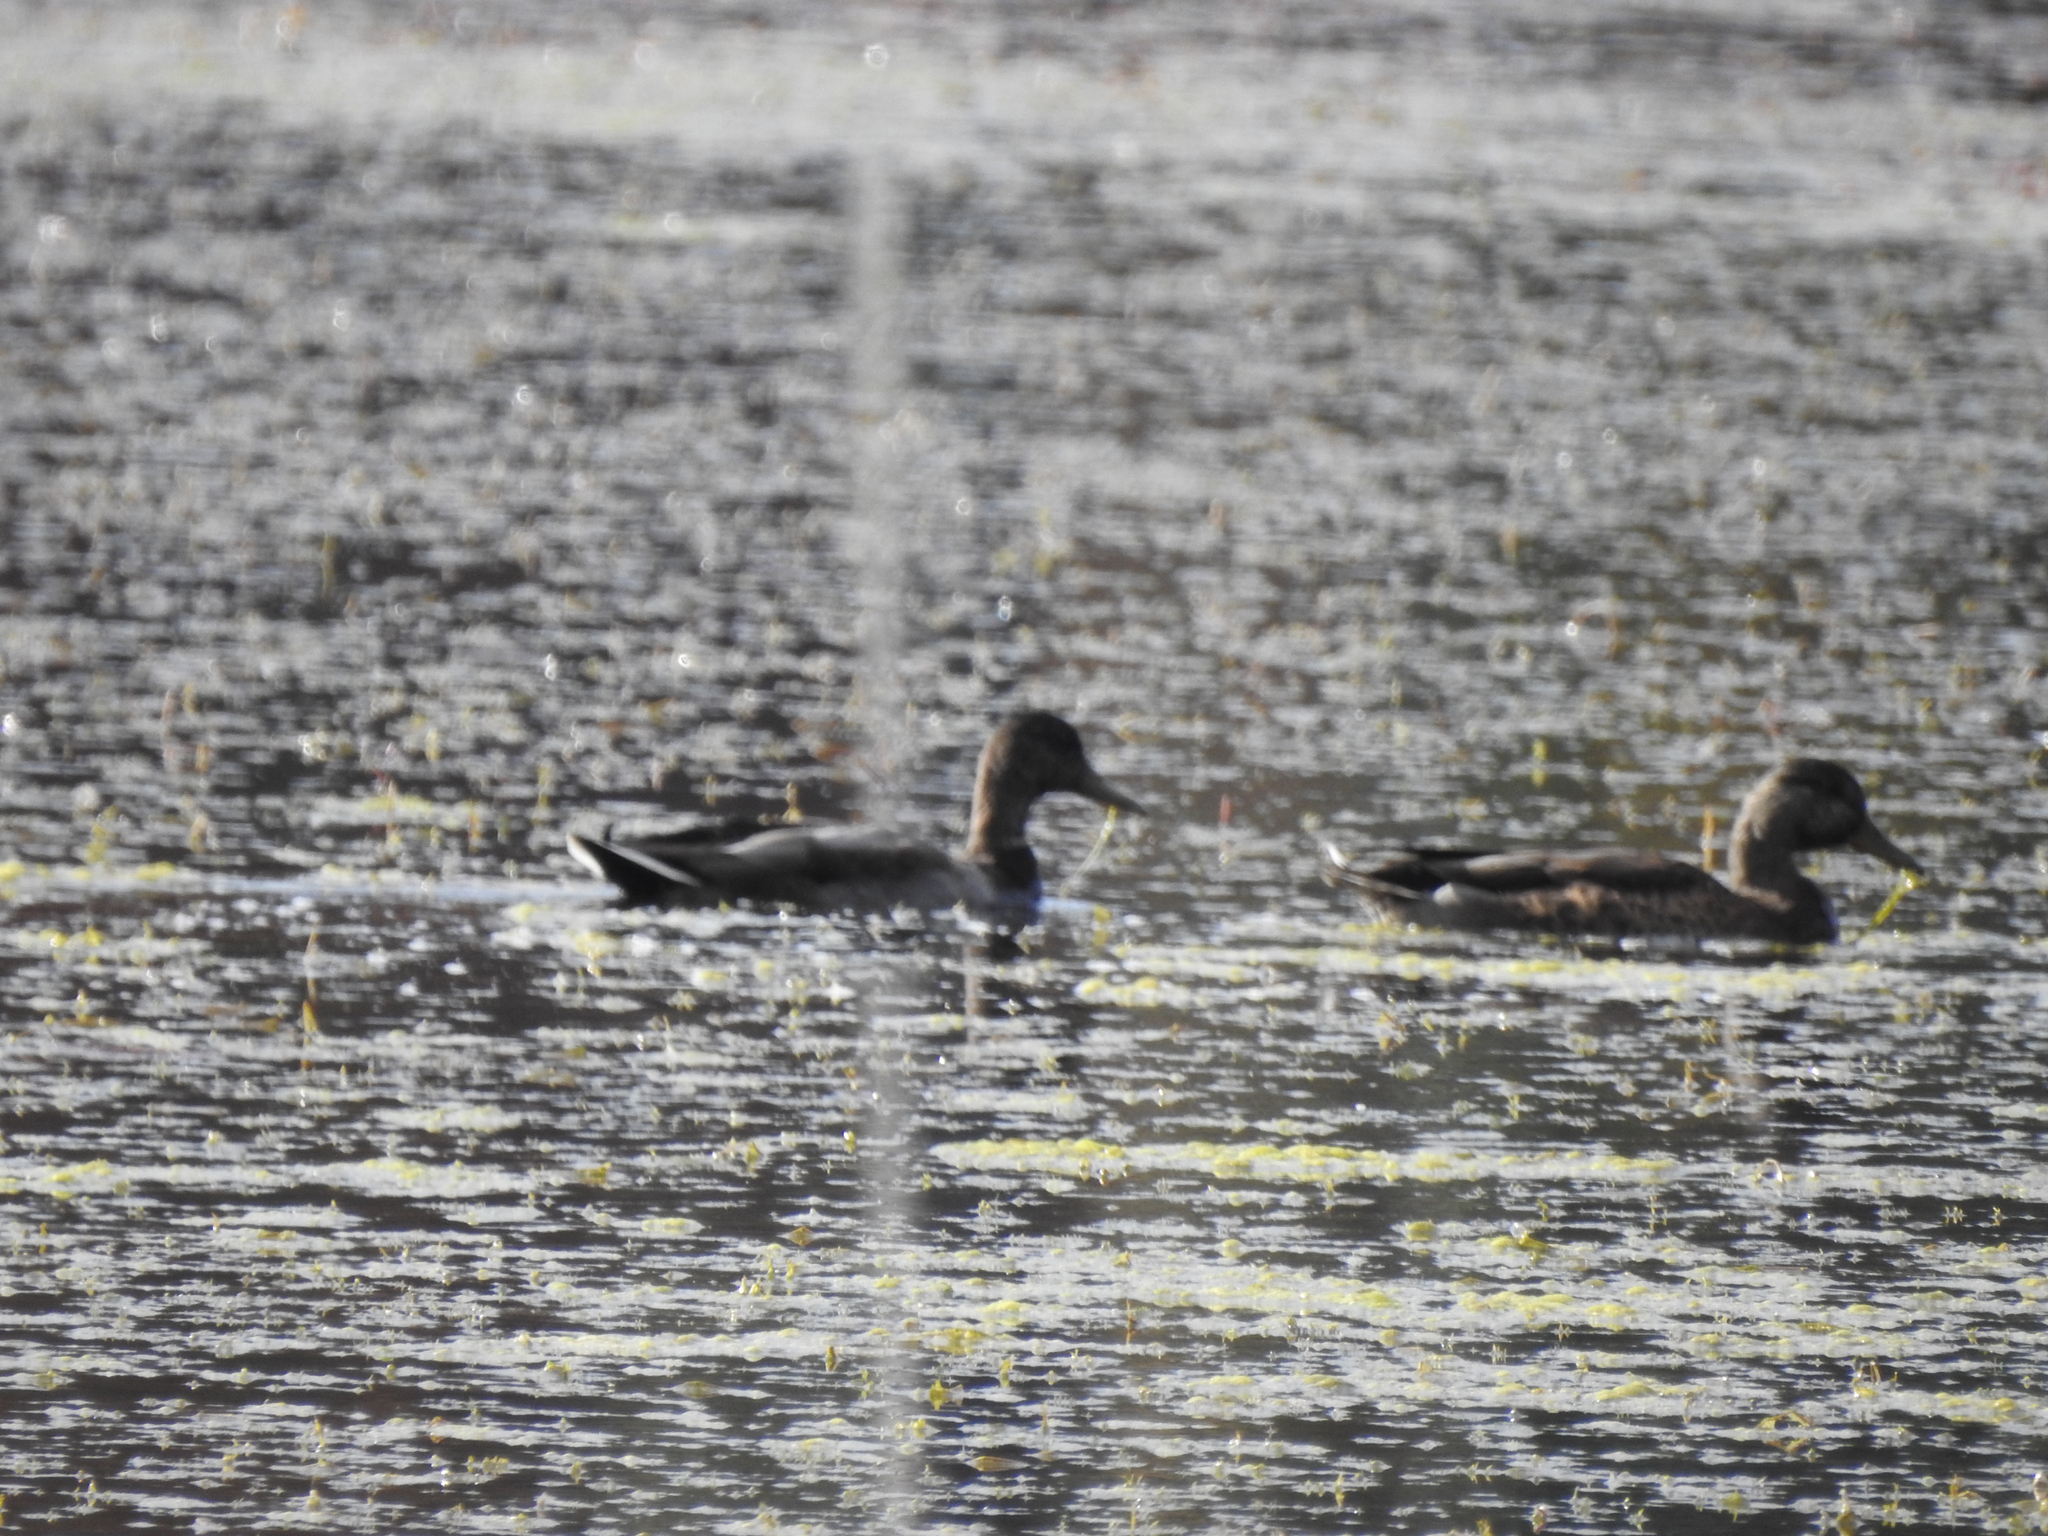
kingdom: Animalia
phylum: Chordata
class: Aves
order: Anseriformes
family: Anatidae
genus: Anas
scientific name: Anas platyrhynchos
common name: Mallard
